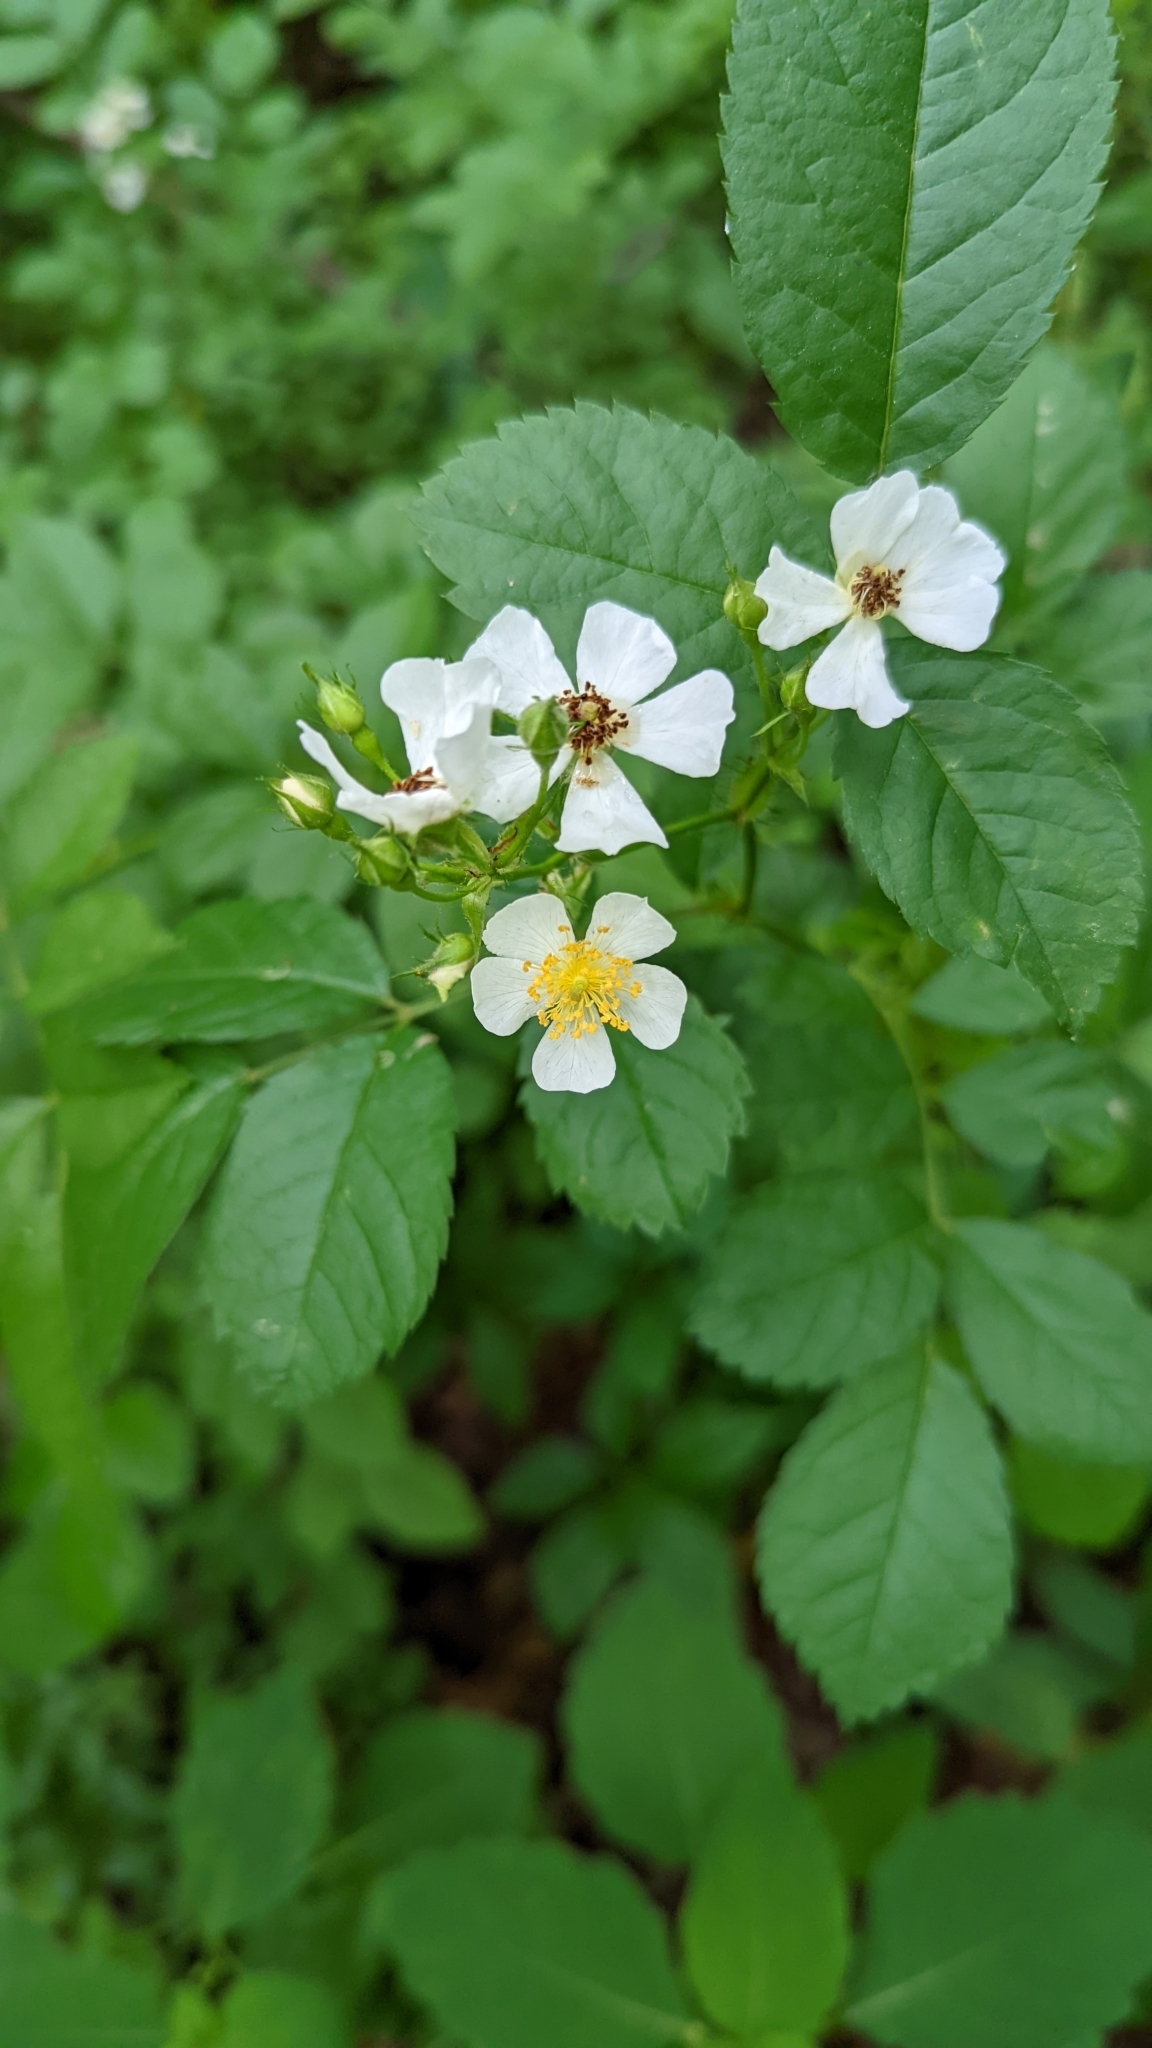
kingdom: Plantae
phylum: Tracheophyta
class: Magnoliopsida
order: Rosales
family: Rosaceae
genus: Rosa
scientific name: Rosa multiflora
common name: Multiflora rose
